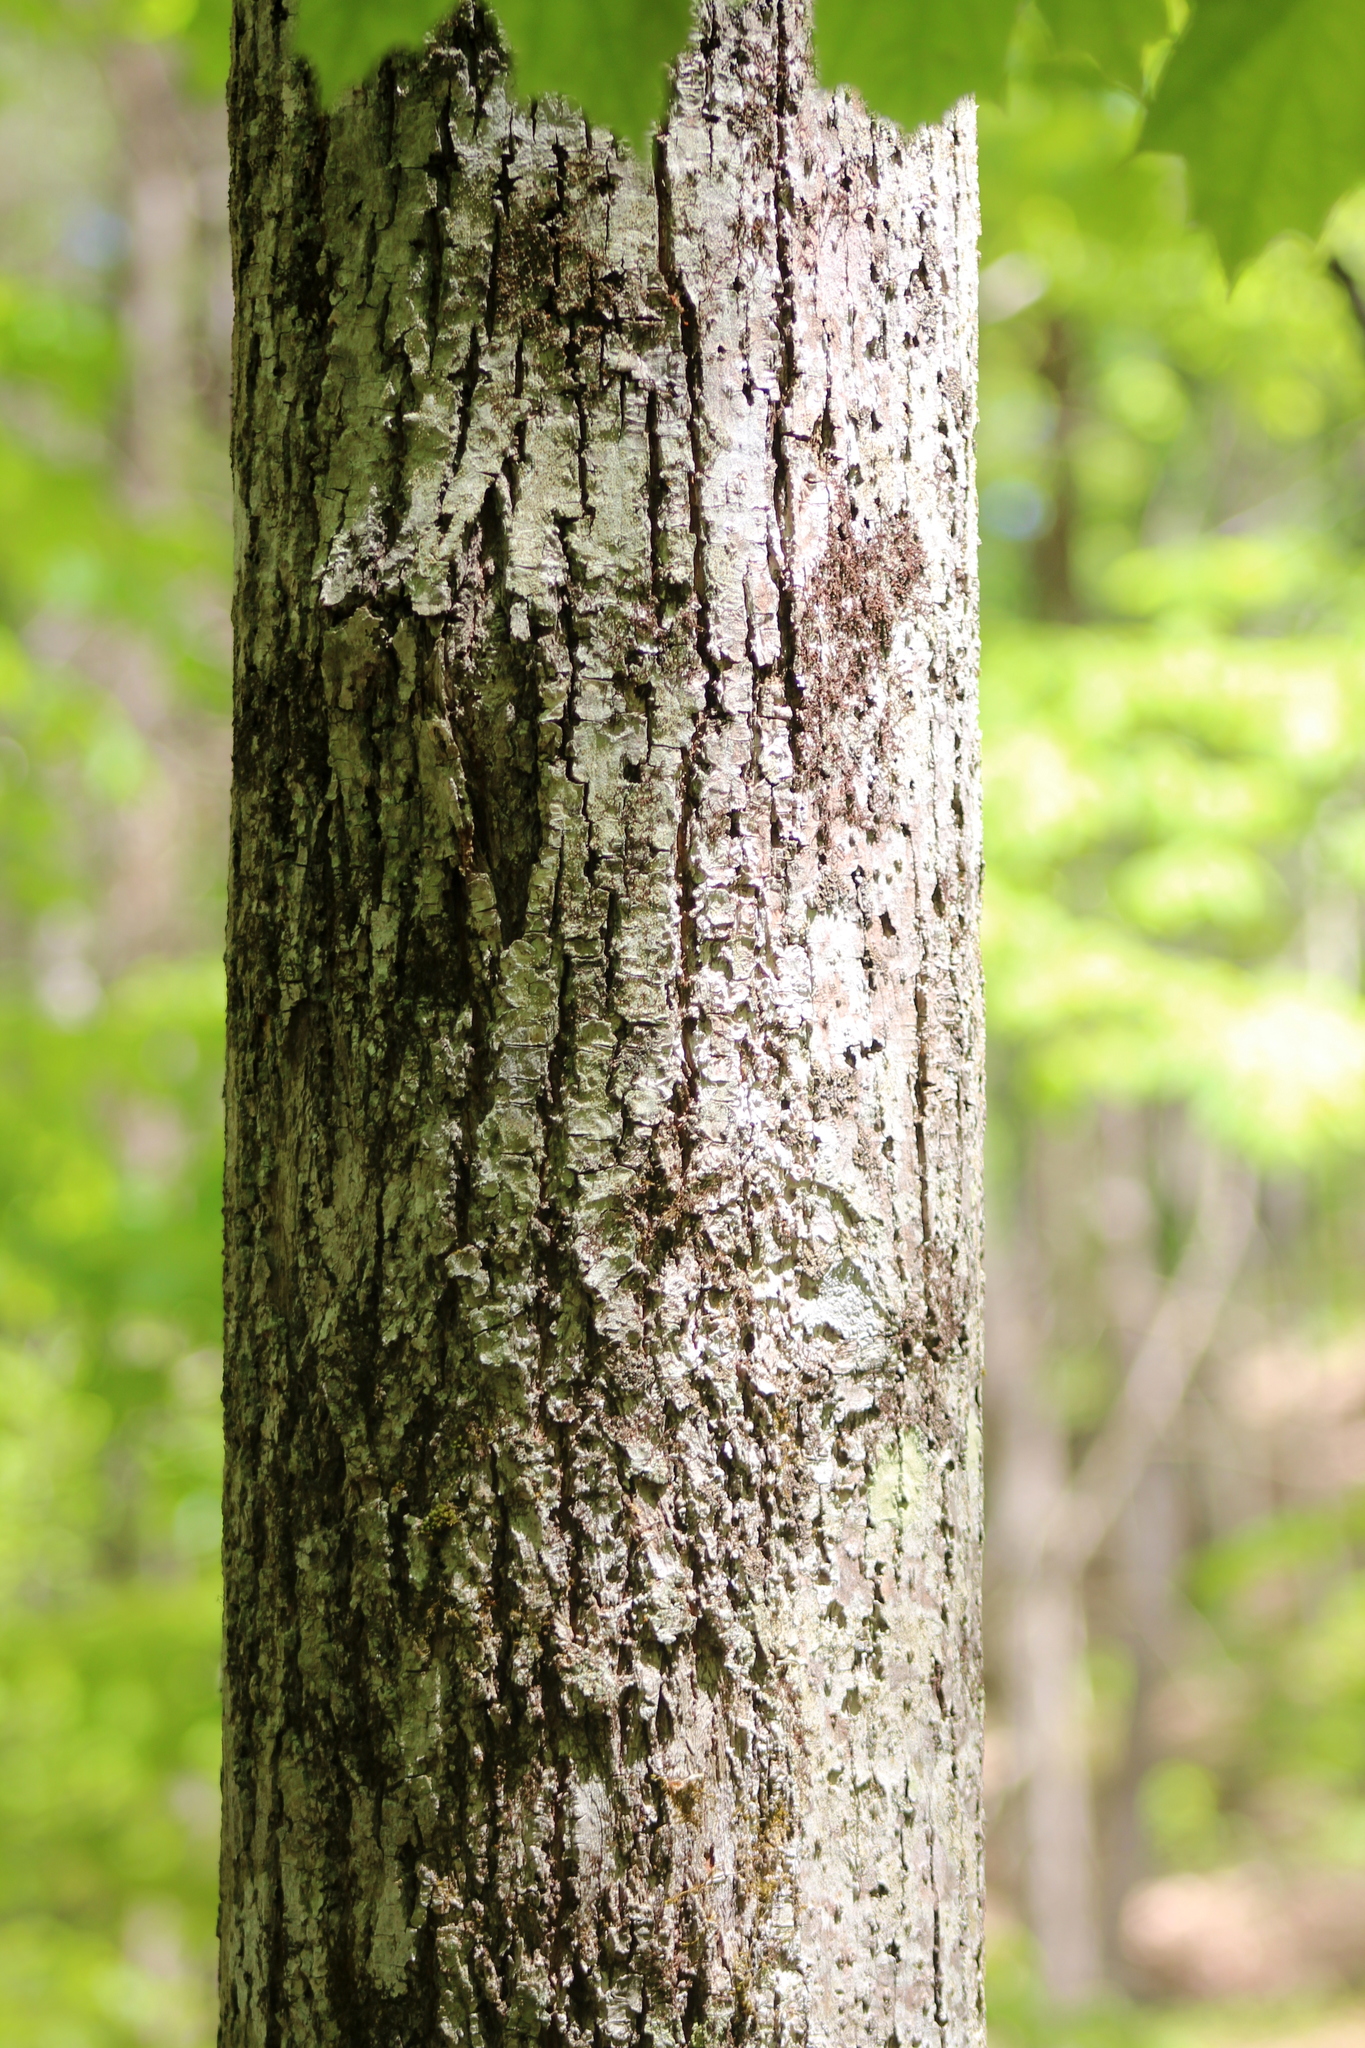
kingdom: Plantae
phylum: Tracheophyta
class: Magnoliopsida
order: Malvales
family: Malvaceae
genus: Tilia
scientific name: Tilia americana
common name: Basswood
